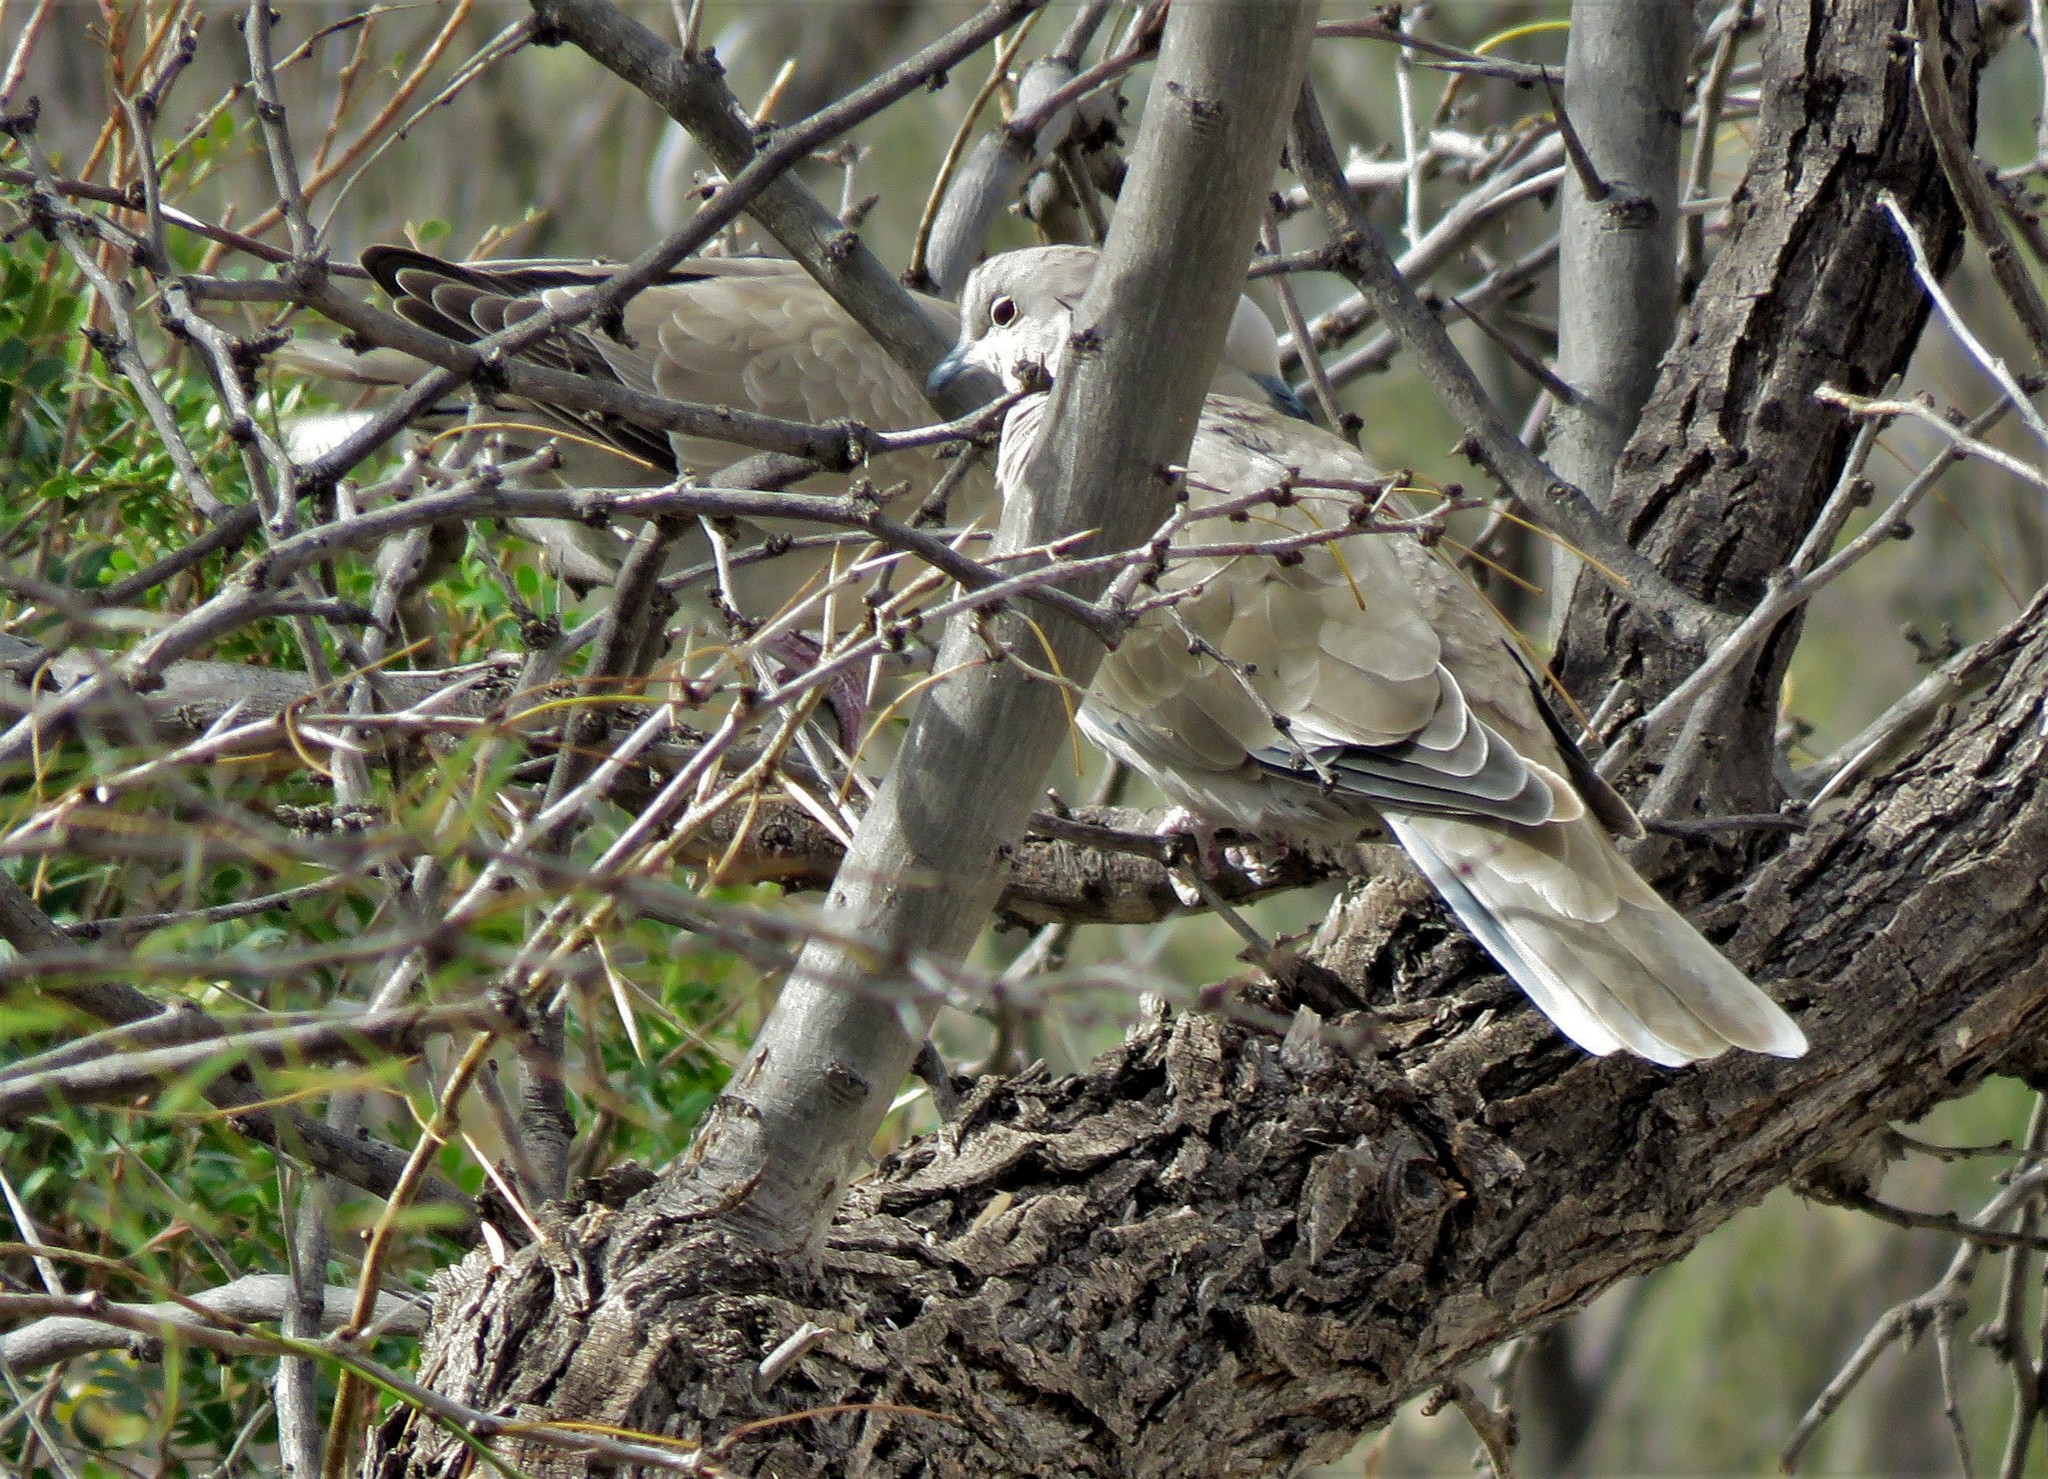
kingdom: Animalia
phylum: Chordata
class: Aves
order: Columbiformes
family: Columbidae
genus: Streptopelia
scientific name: Streptopelia decaocto
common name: Eurasian collared dove
